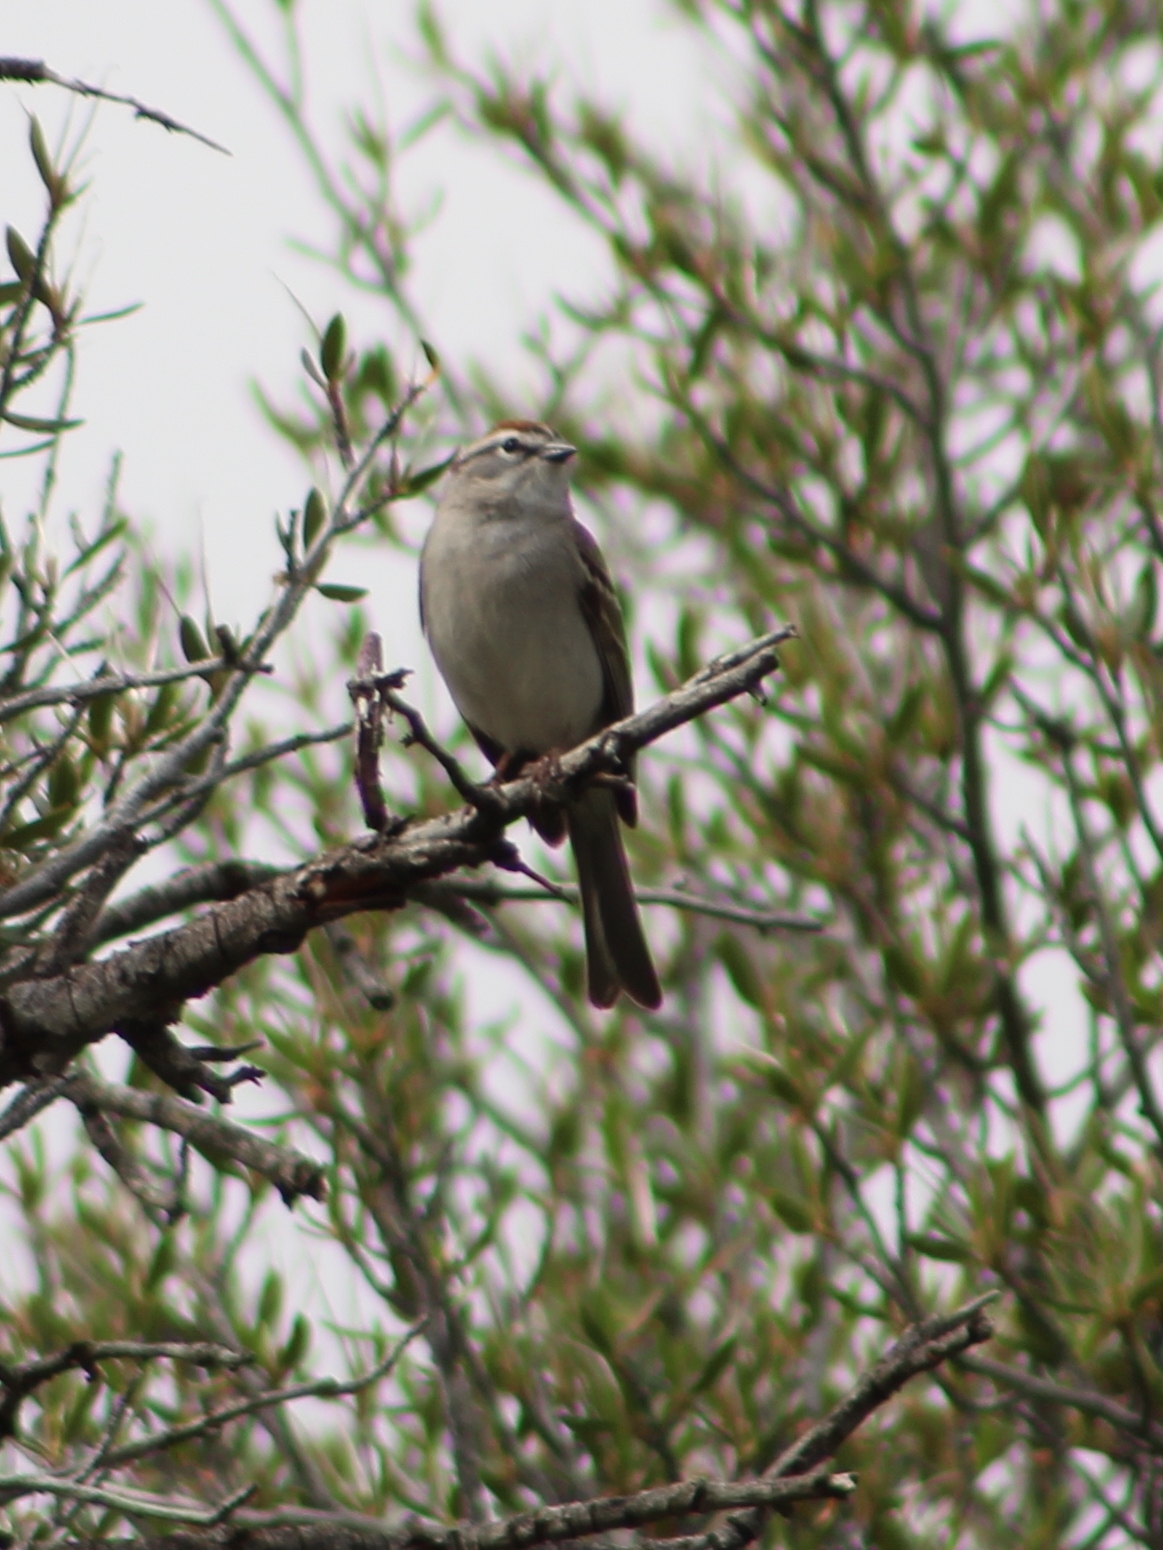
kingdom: Animalia
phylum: Chordata
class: Aves
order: Passeriformes
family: Passerellidae
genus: Spizella
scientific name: Spizella passerina
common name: Chipping sparrow
